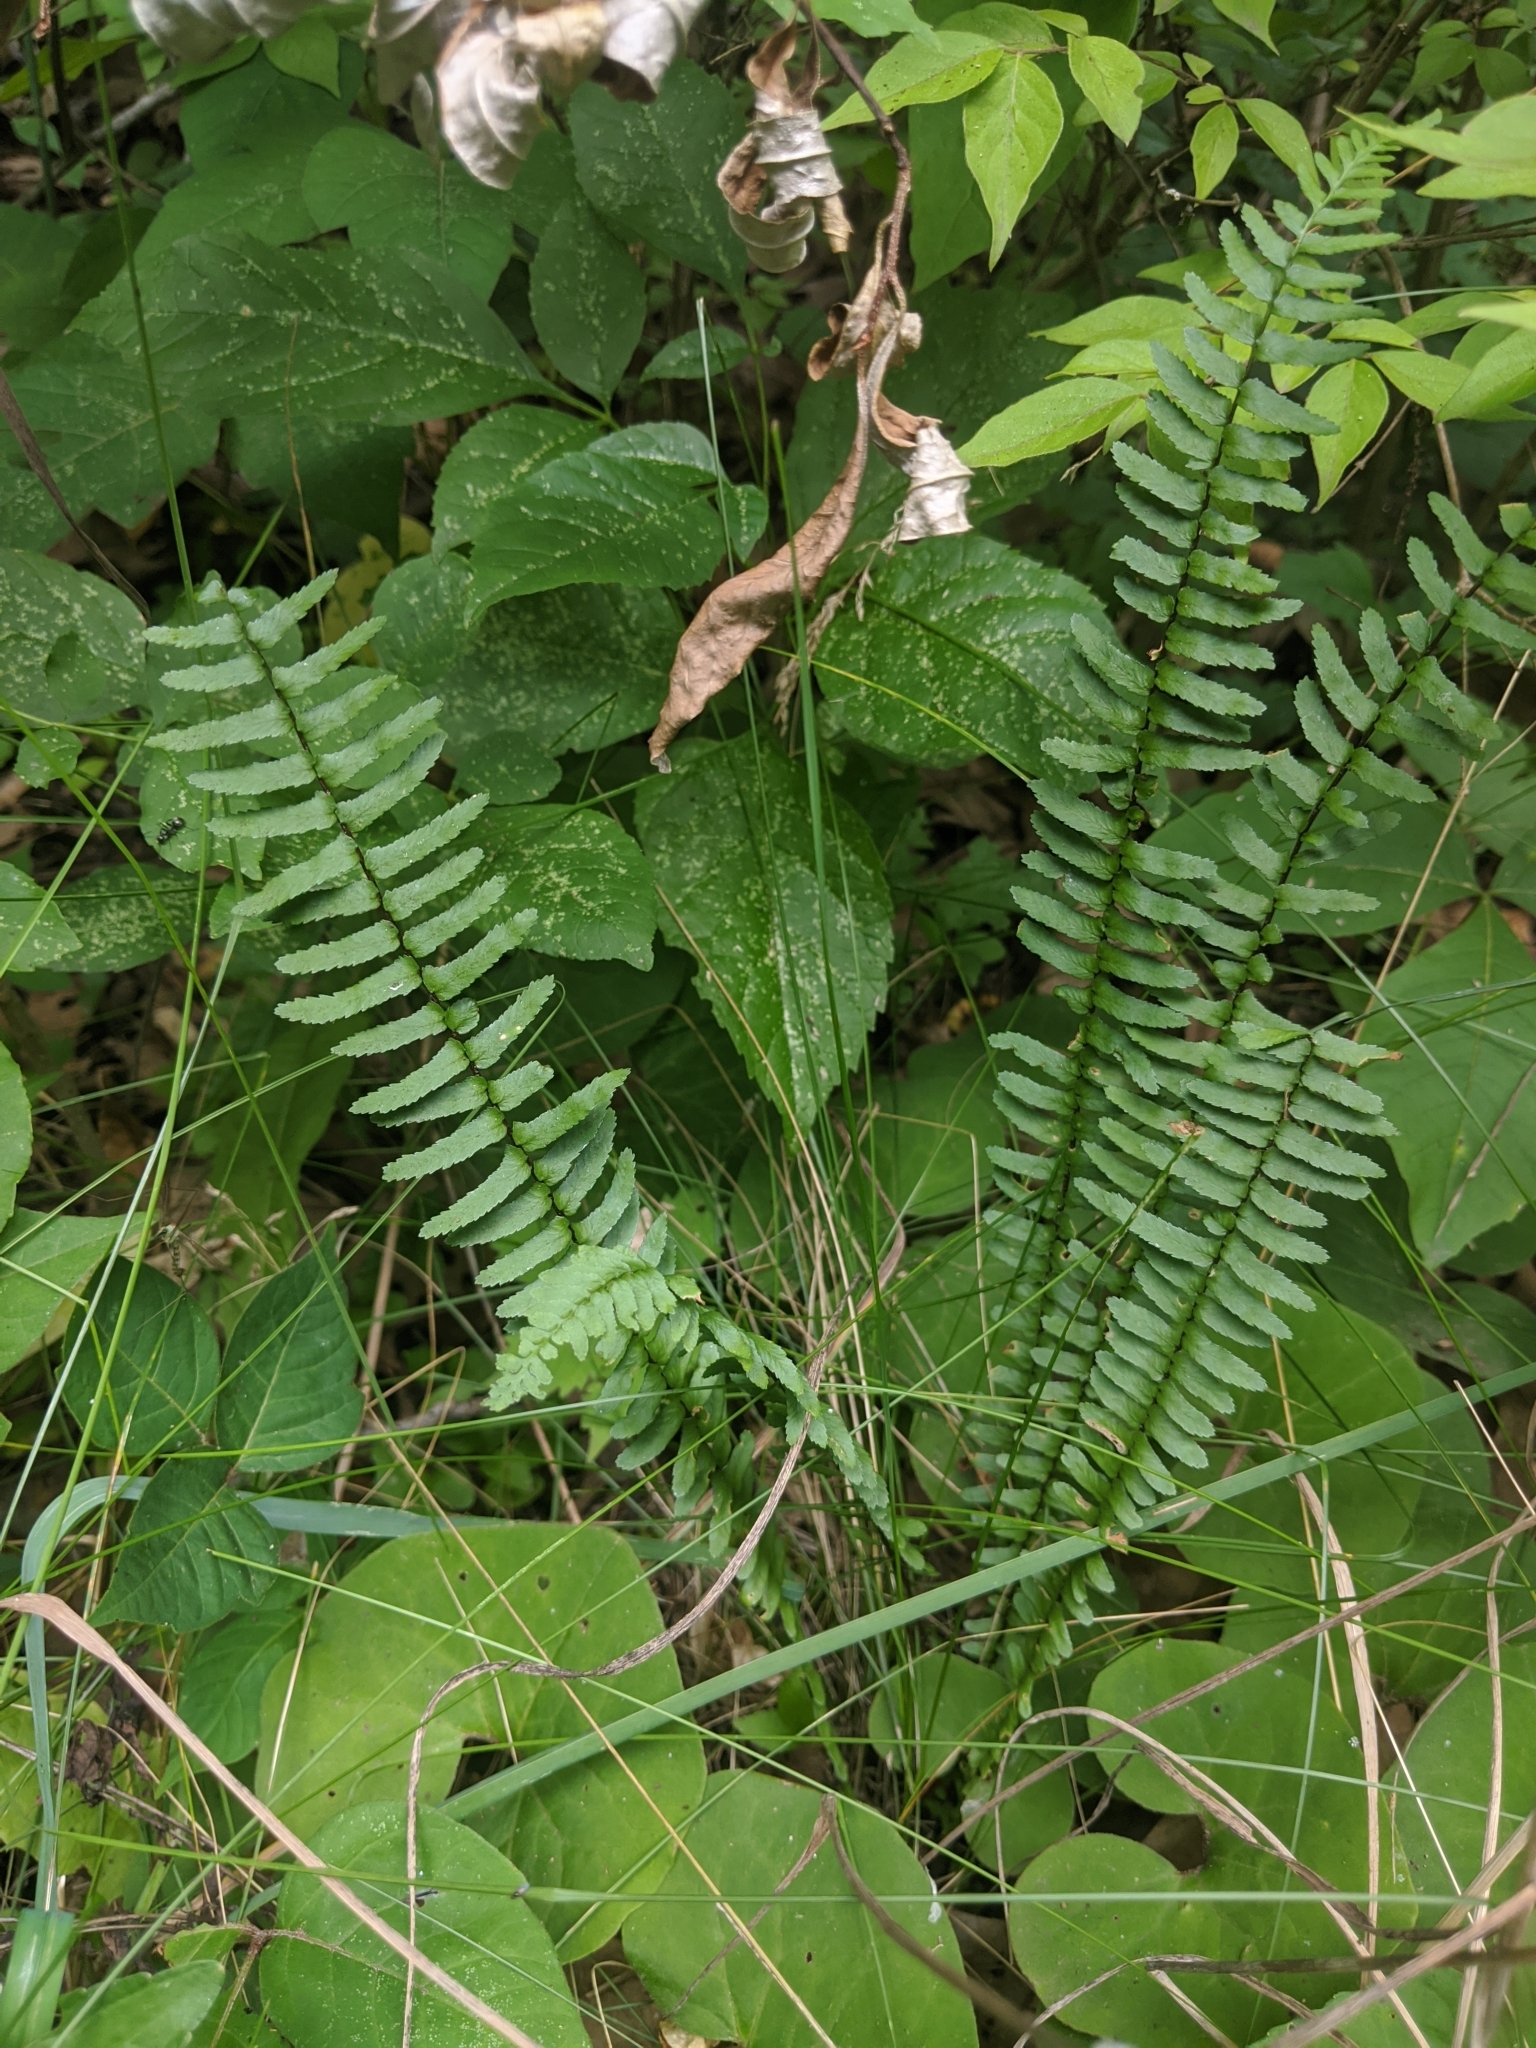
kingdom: Plantae
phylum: Tracheophyta
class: Polypodiopsida
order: Polypodiales
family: Aspleniaceae
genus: Asplenium
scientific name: Asplenium platyneuron
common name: Ebony spleenwort
